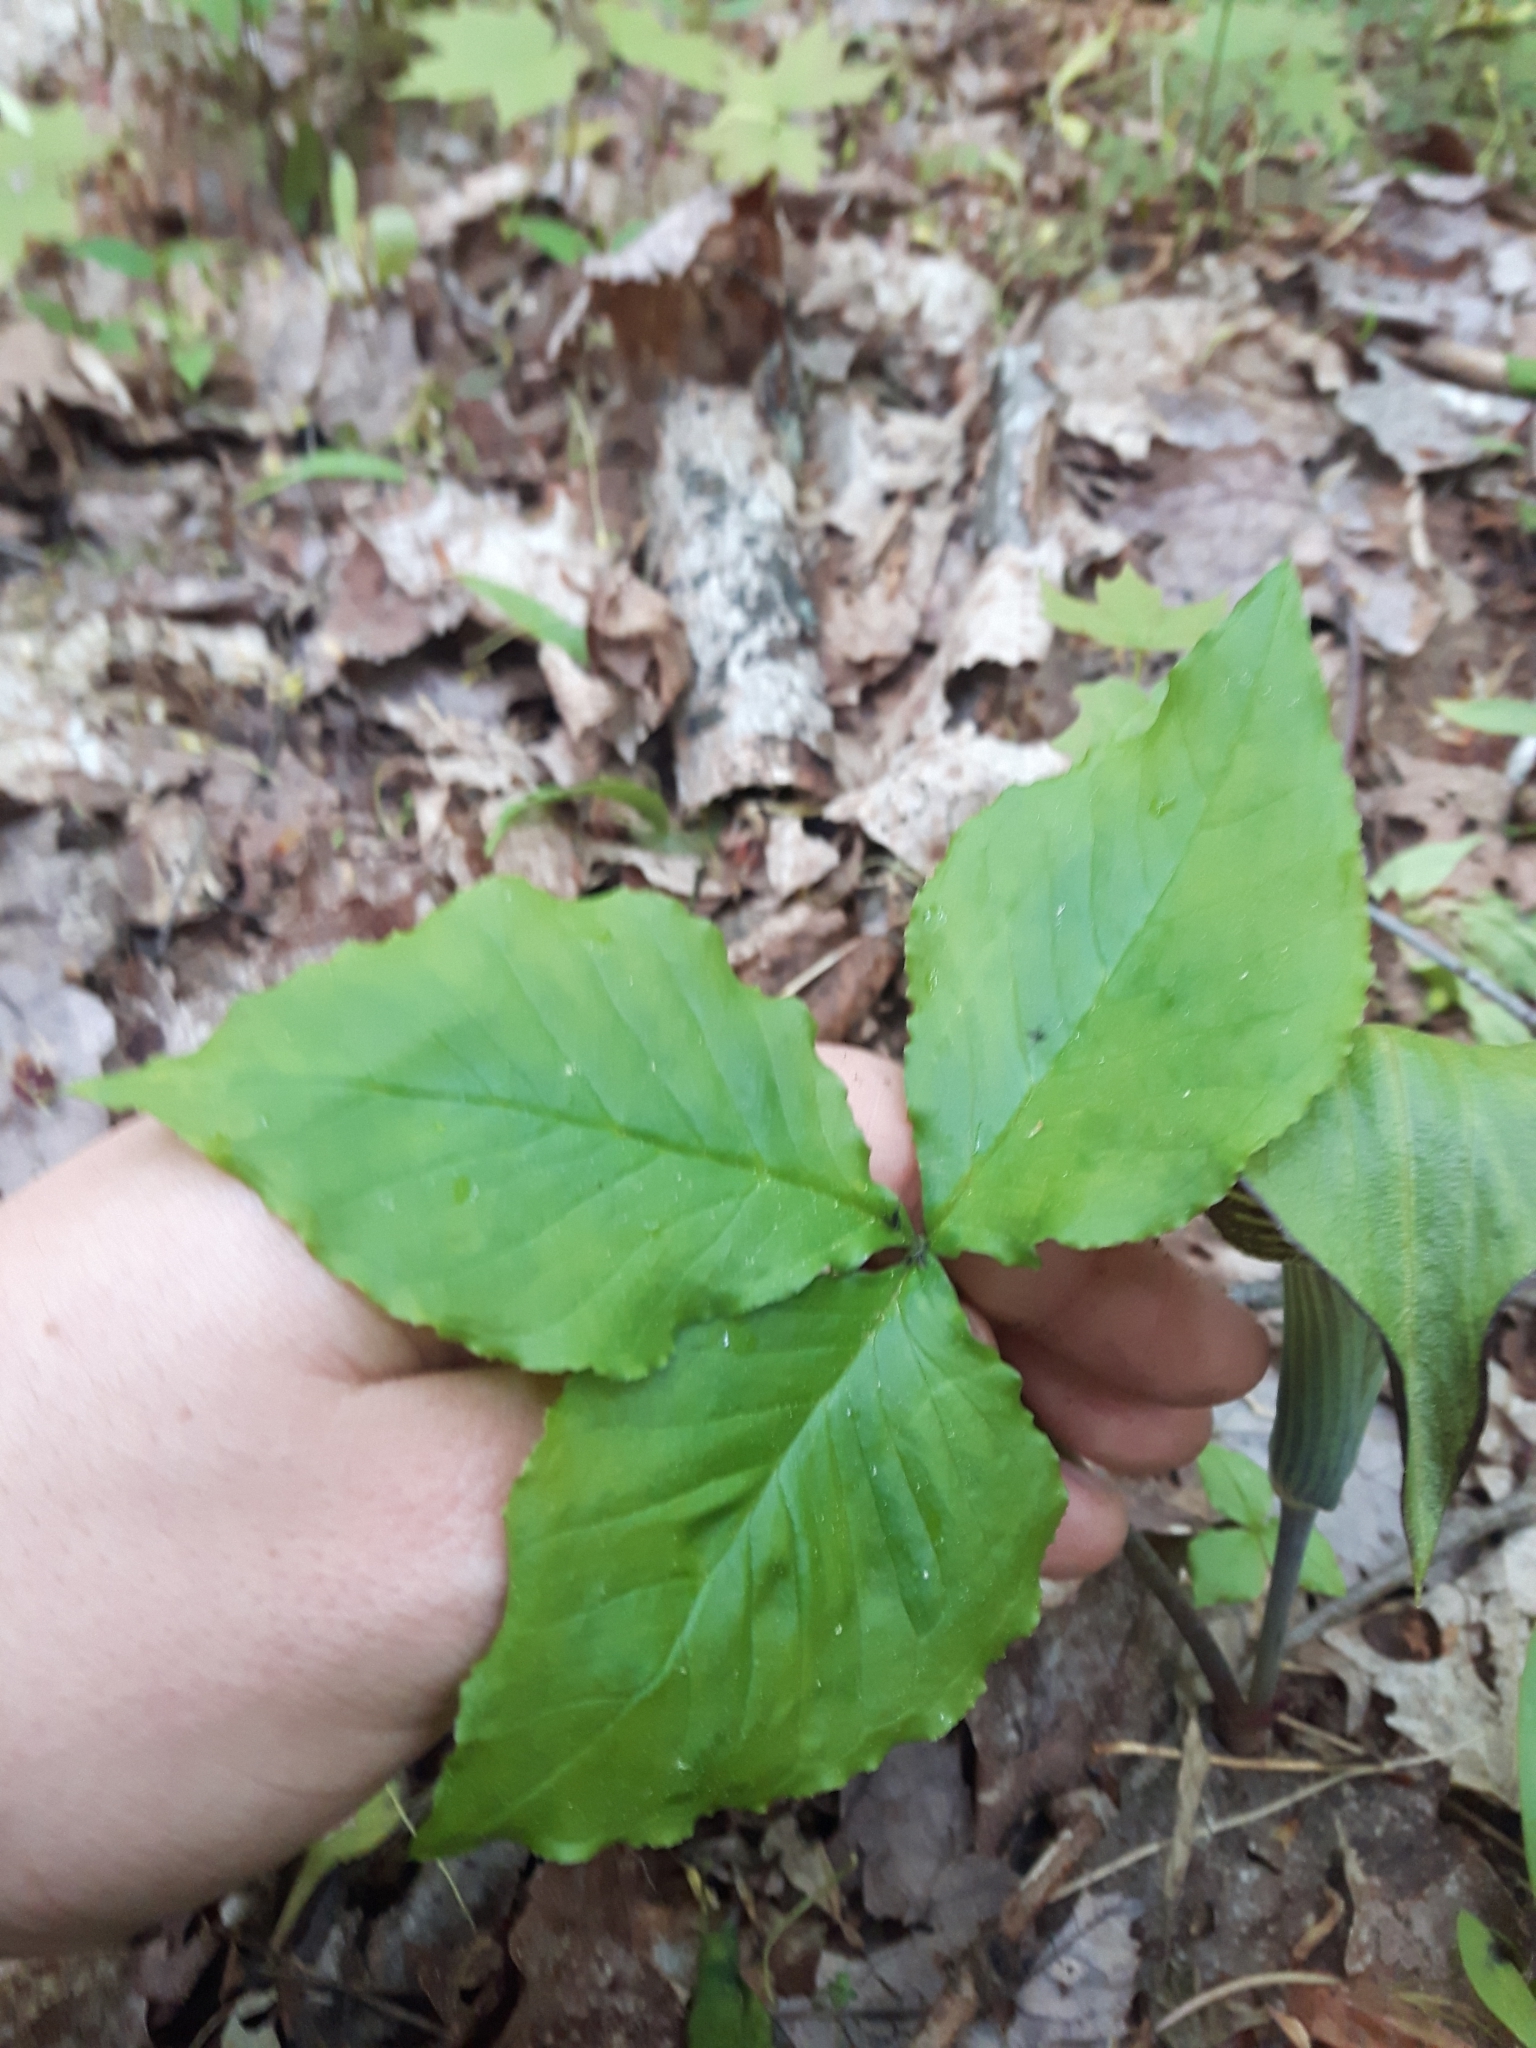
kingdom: Plantae
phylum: Tracheophyta
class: Liliopsida
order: Alismatales
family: Araceae
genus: Arisaema
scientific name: Arisaema triphyllum
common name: Jack-in-the-pulpit
